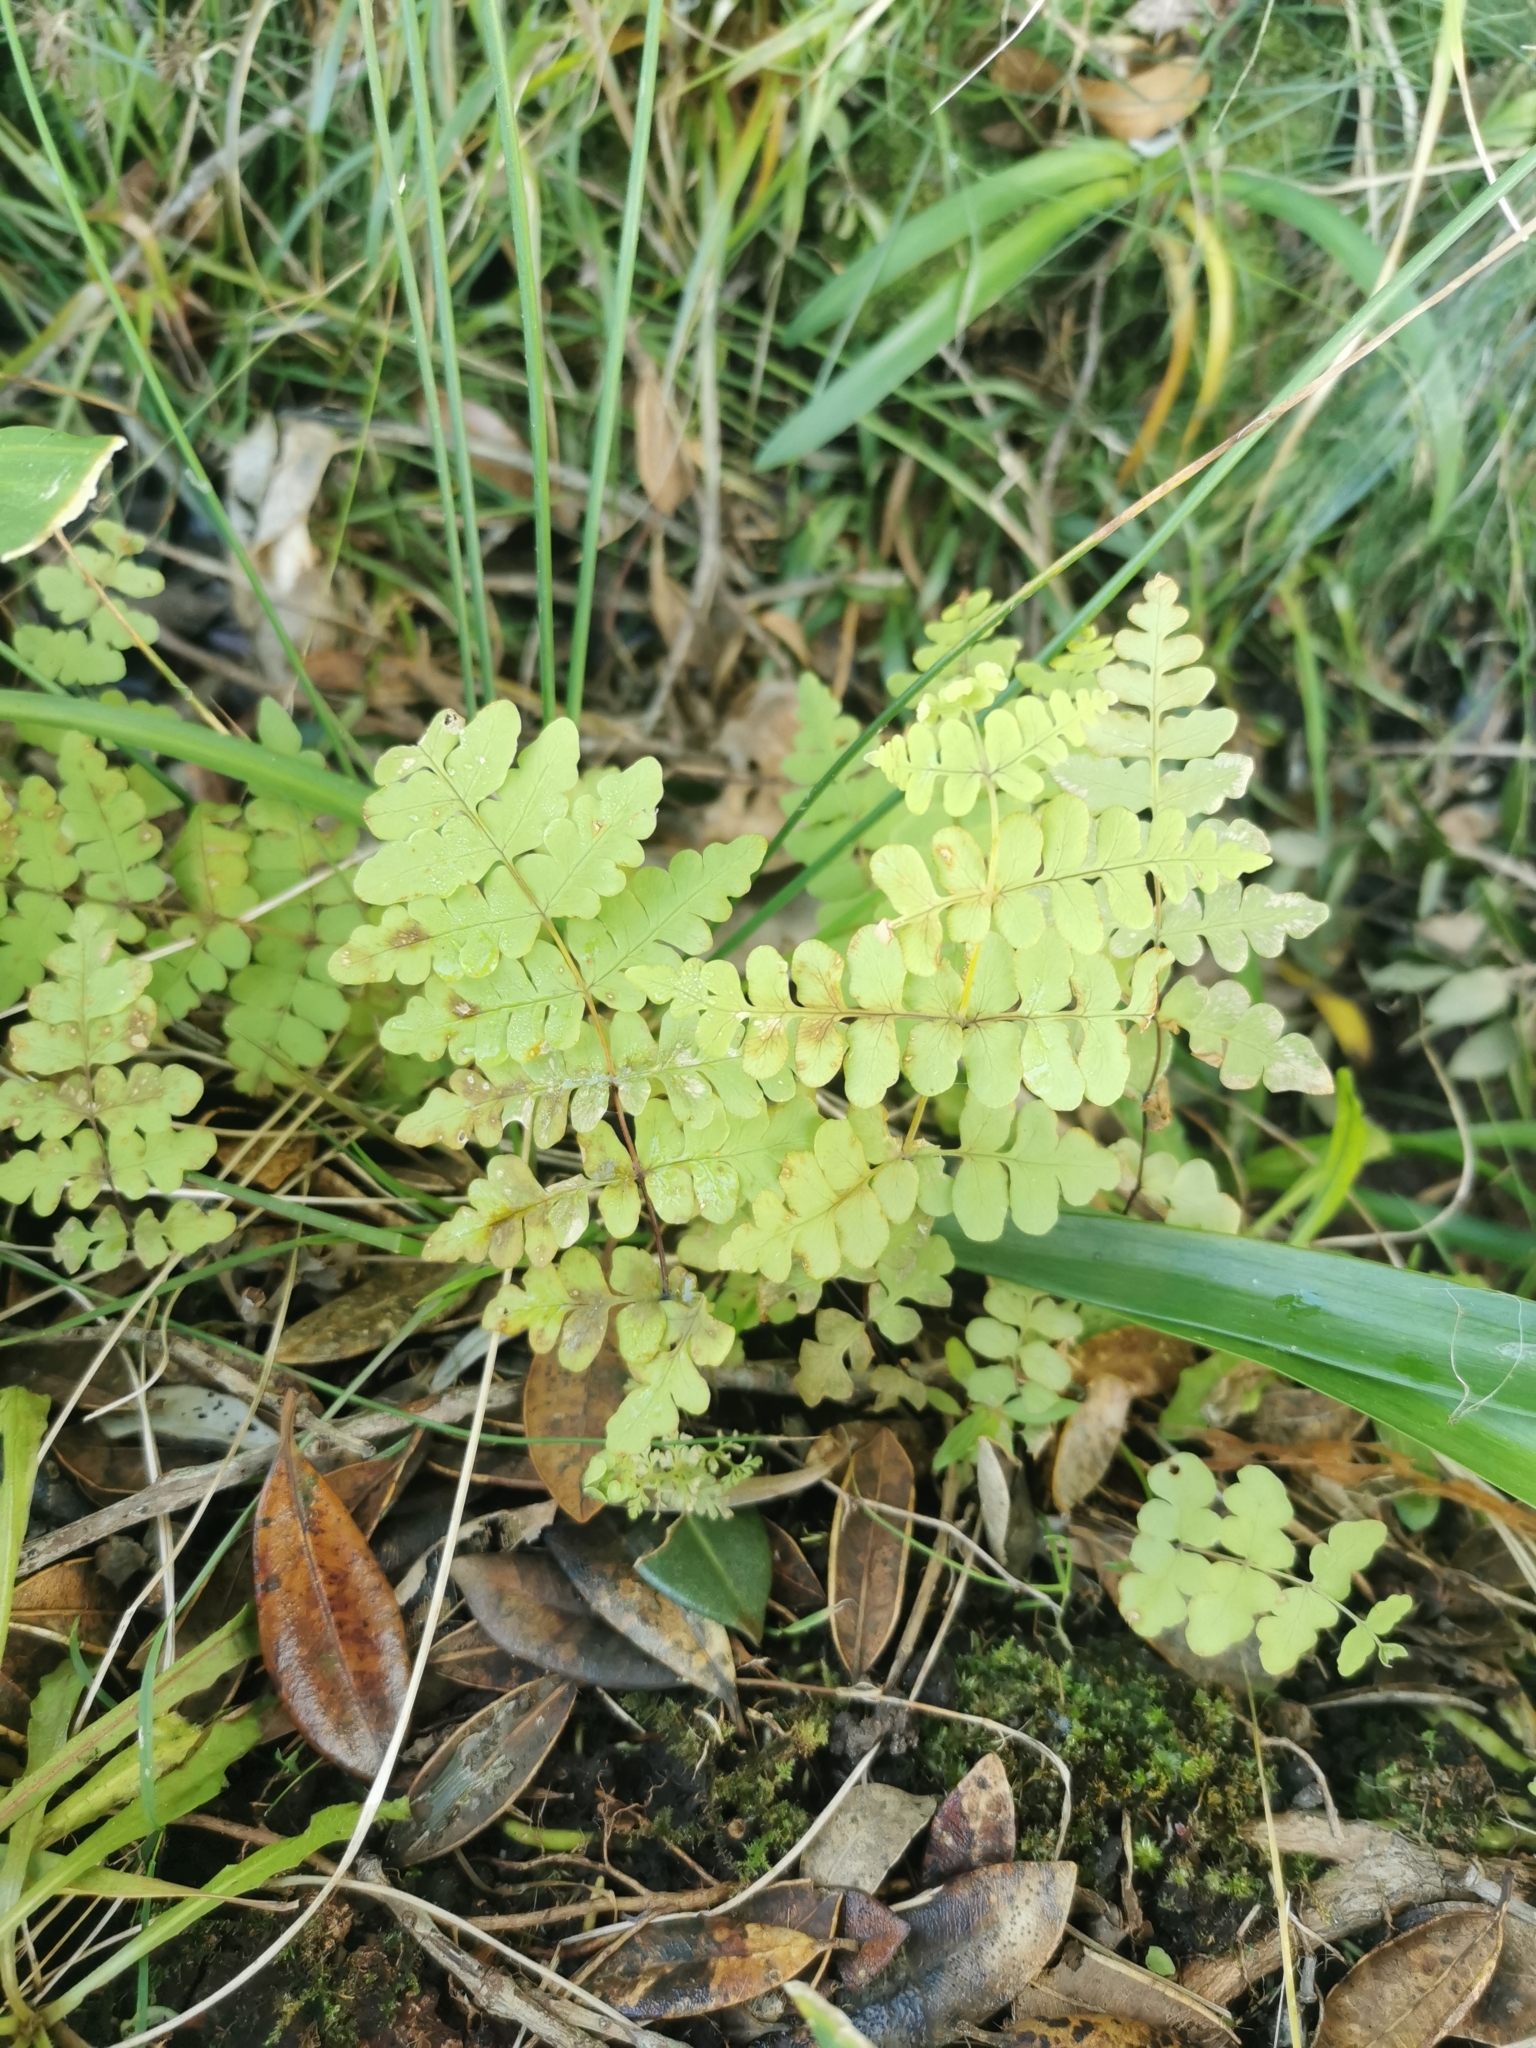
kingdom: Plantae
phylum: Tracheophyta
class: Polypodiopsida
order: Polypodiales
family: Dennstaedtiaceae
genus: Histiopteris
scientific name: Histiopteris incisa
